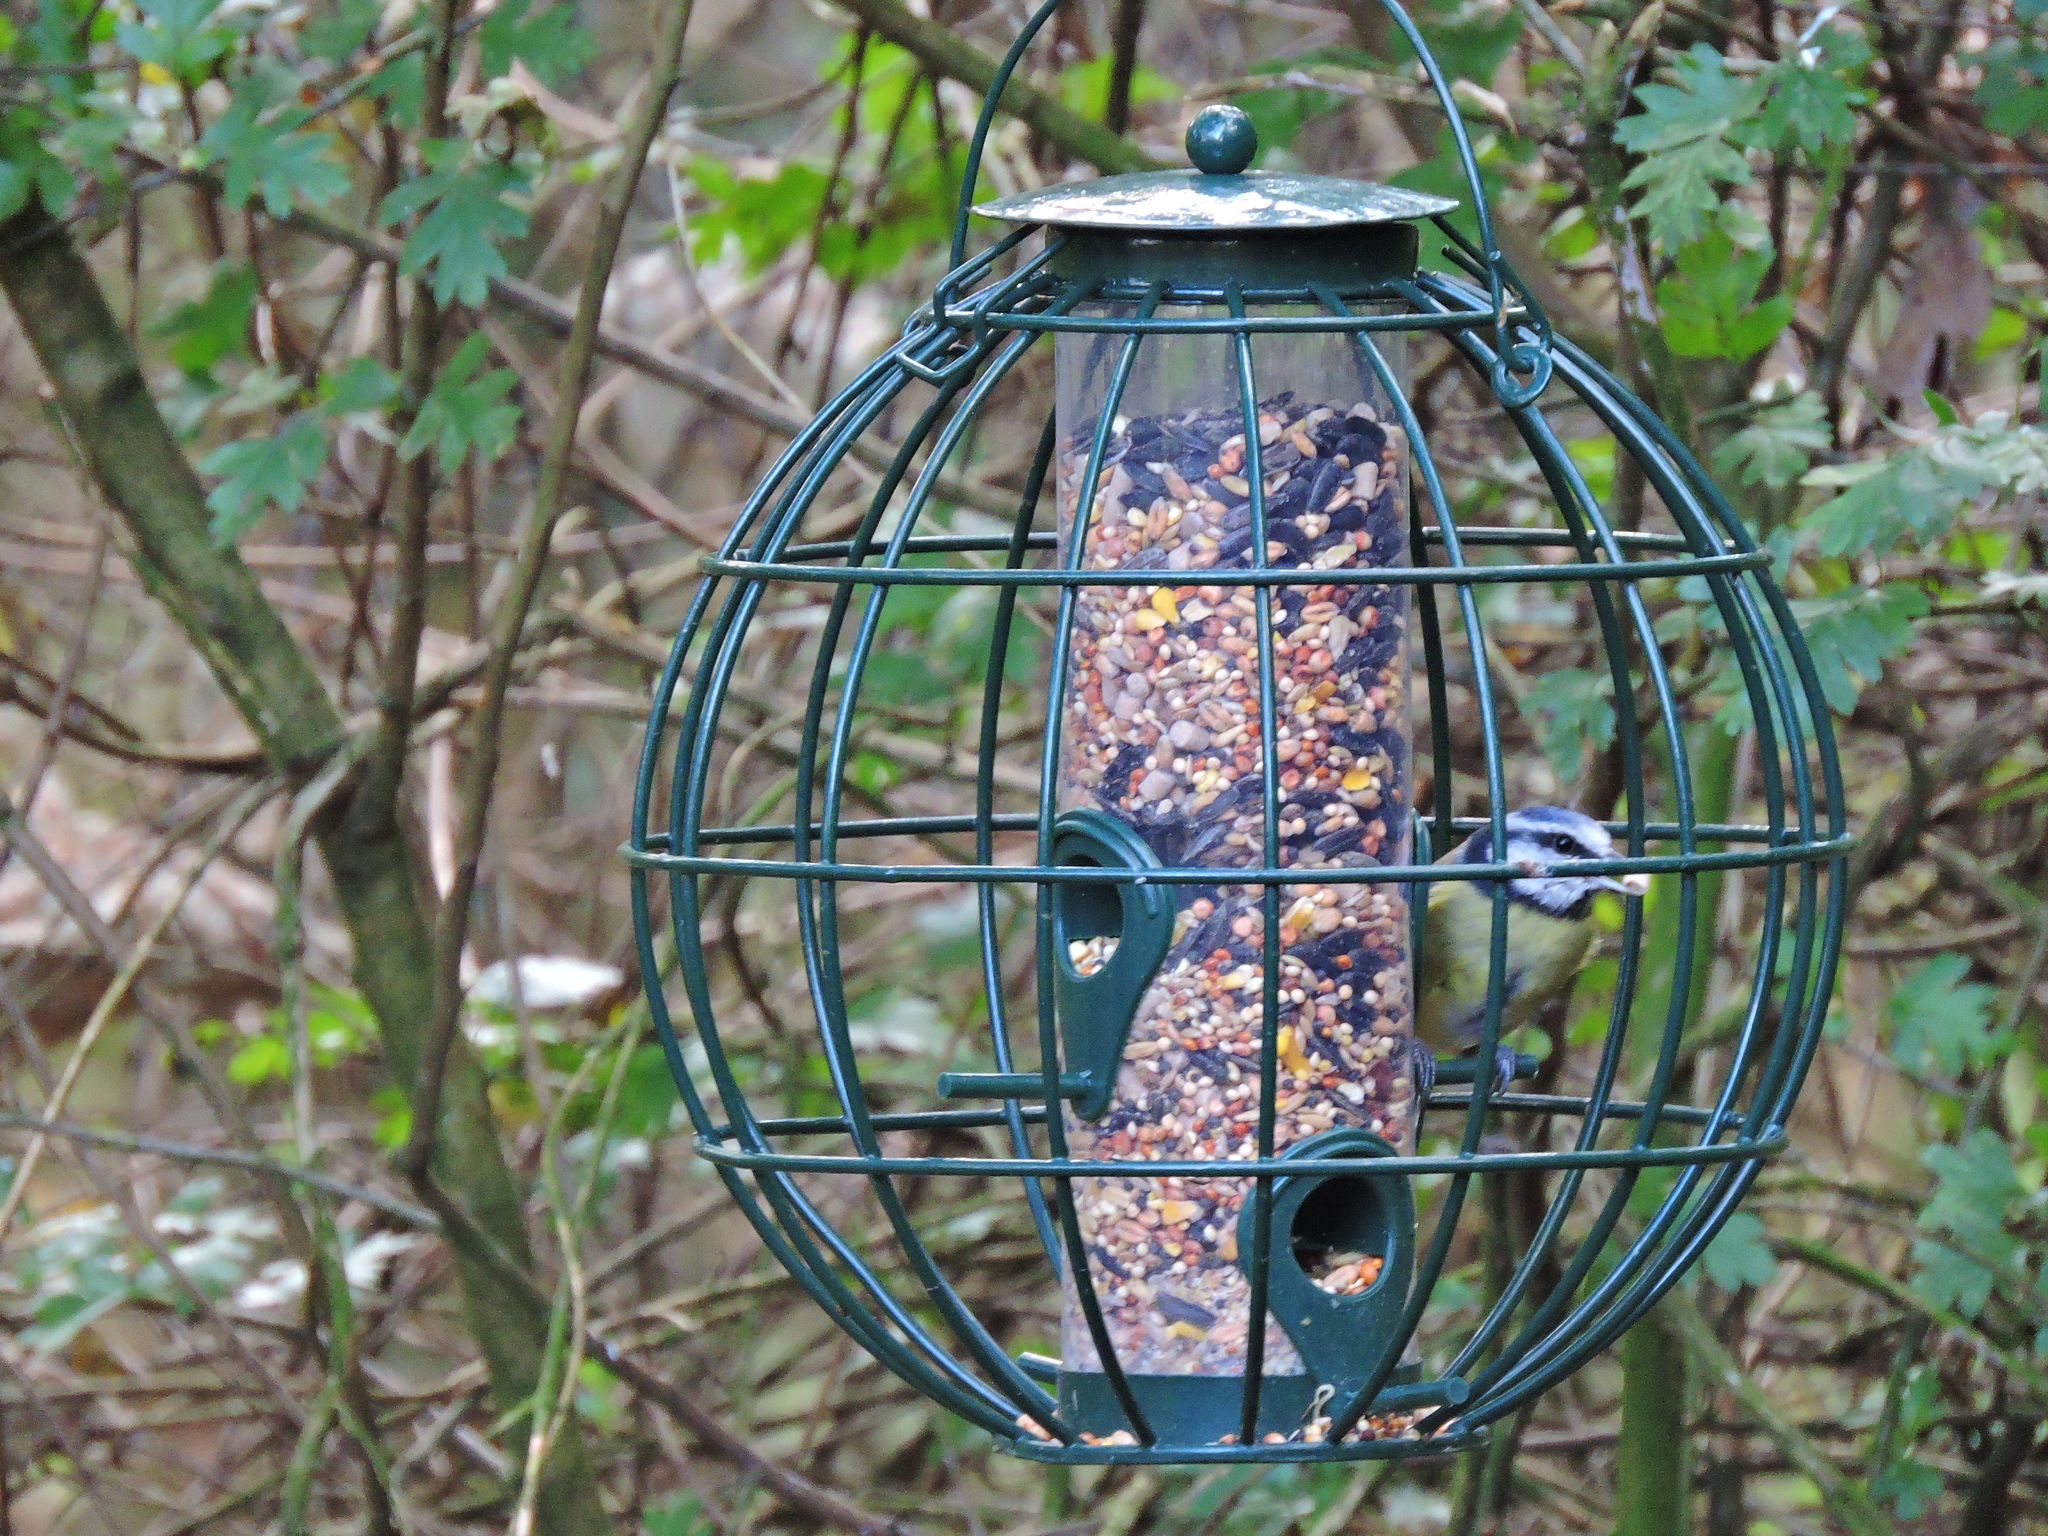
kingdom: Animalia
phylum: Chordata
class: Aves
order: Passeriformes
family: Paridae
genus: Cyanistes
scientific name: Cyanistes caeruleus
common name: Eurasian blue tit
